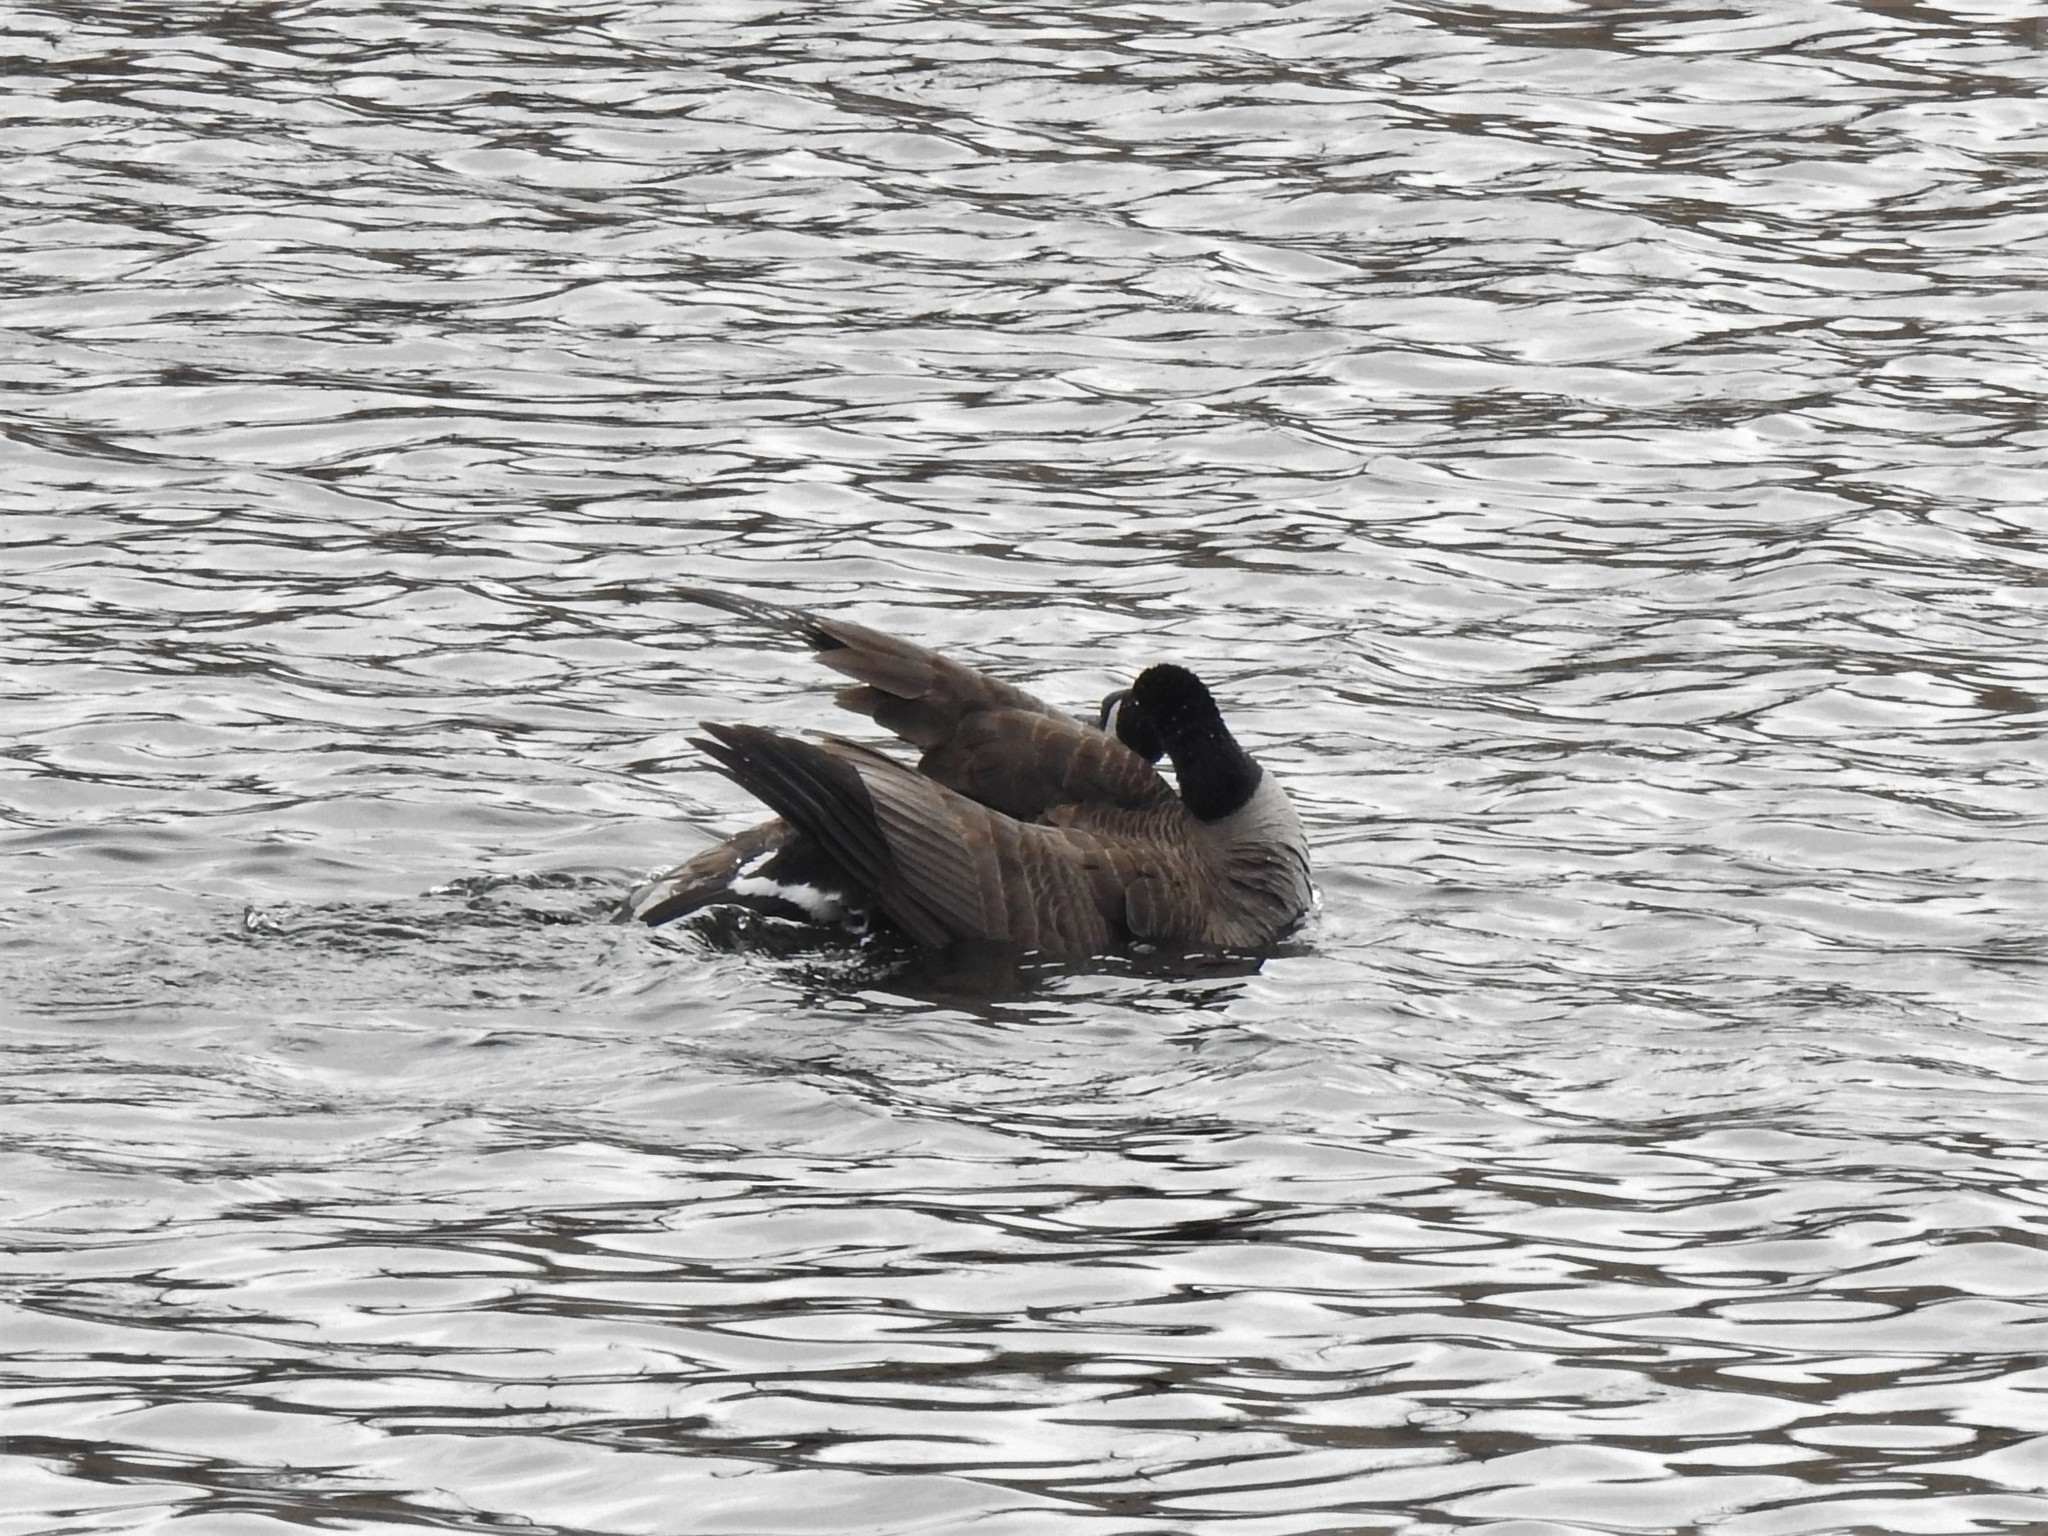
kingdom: Animalia
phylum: Chordata
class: Aves
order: Anseriformes
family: Anatidae
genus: Branta
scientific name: Branta canadensis
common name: Canada goose
